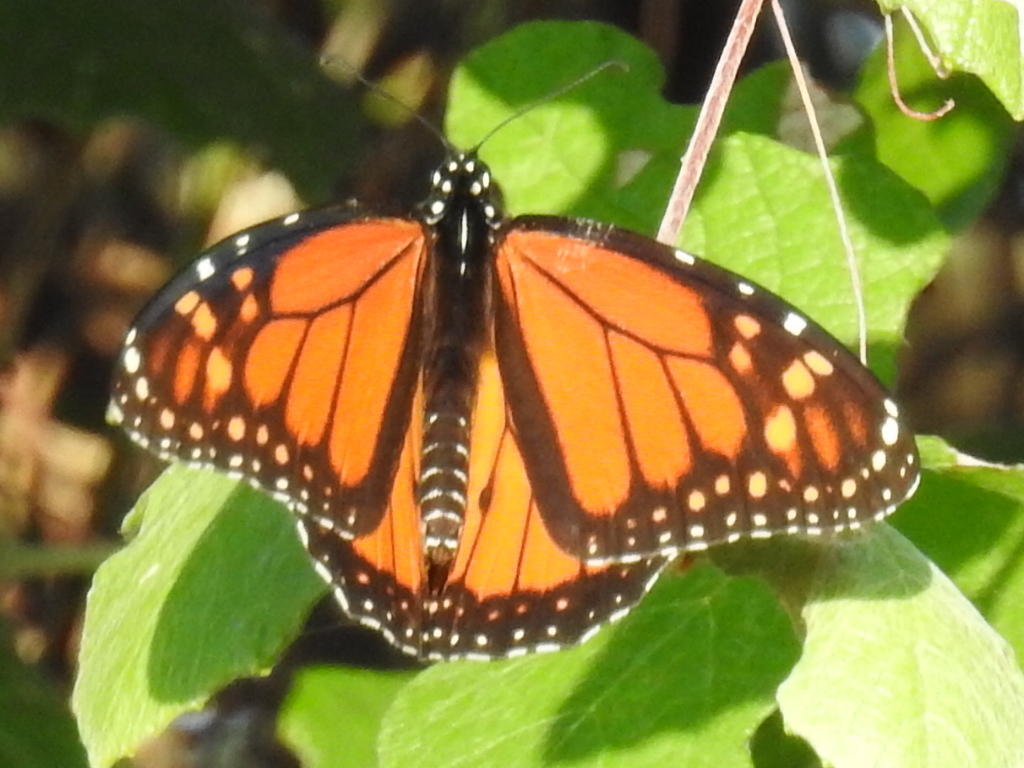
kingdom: Animalia
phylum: Arthropoda
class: Insecta
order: Lepidoptera
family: Nymphalidae
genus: Danaus
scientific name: Danaus plexippus
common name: Monarch
